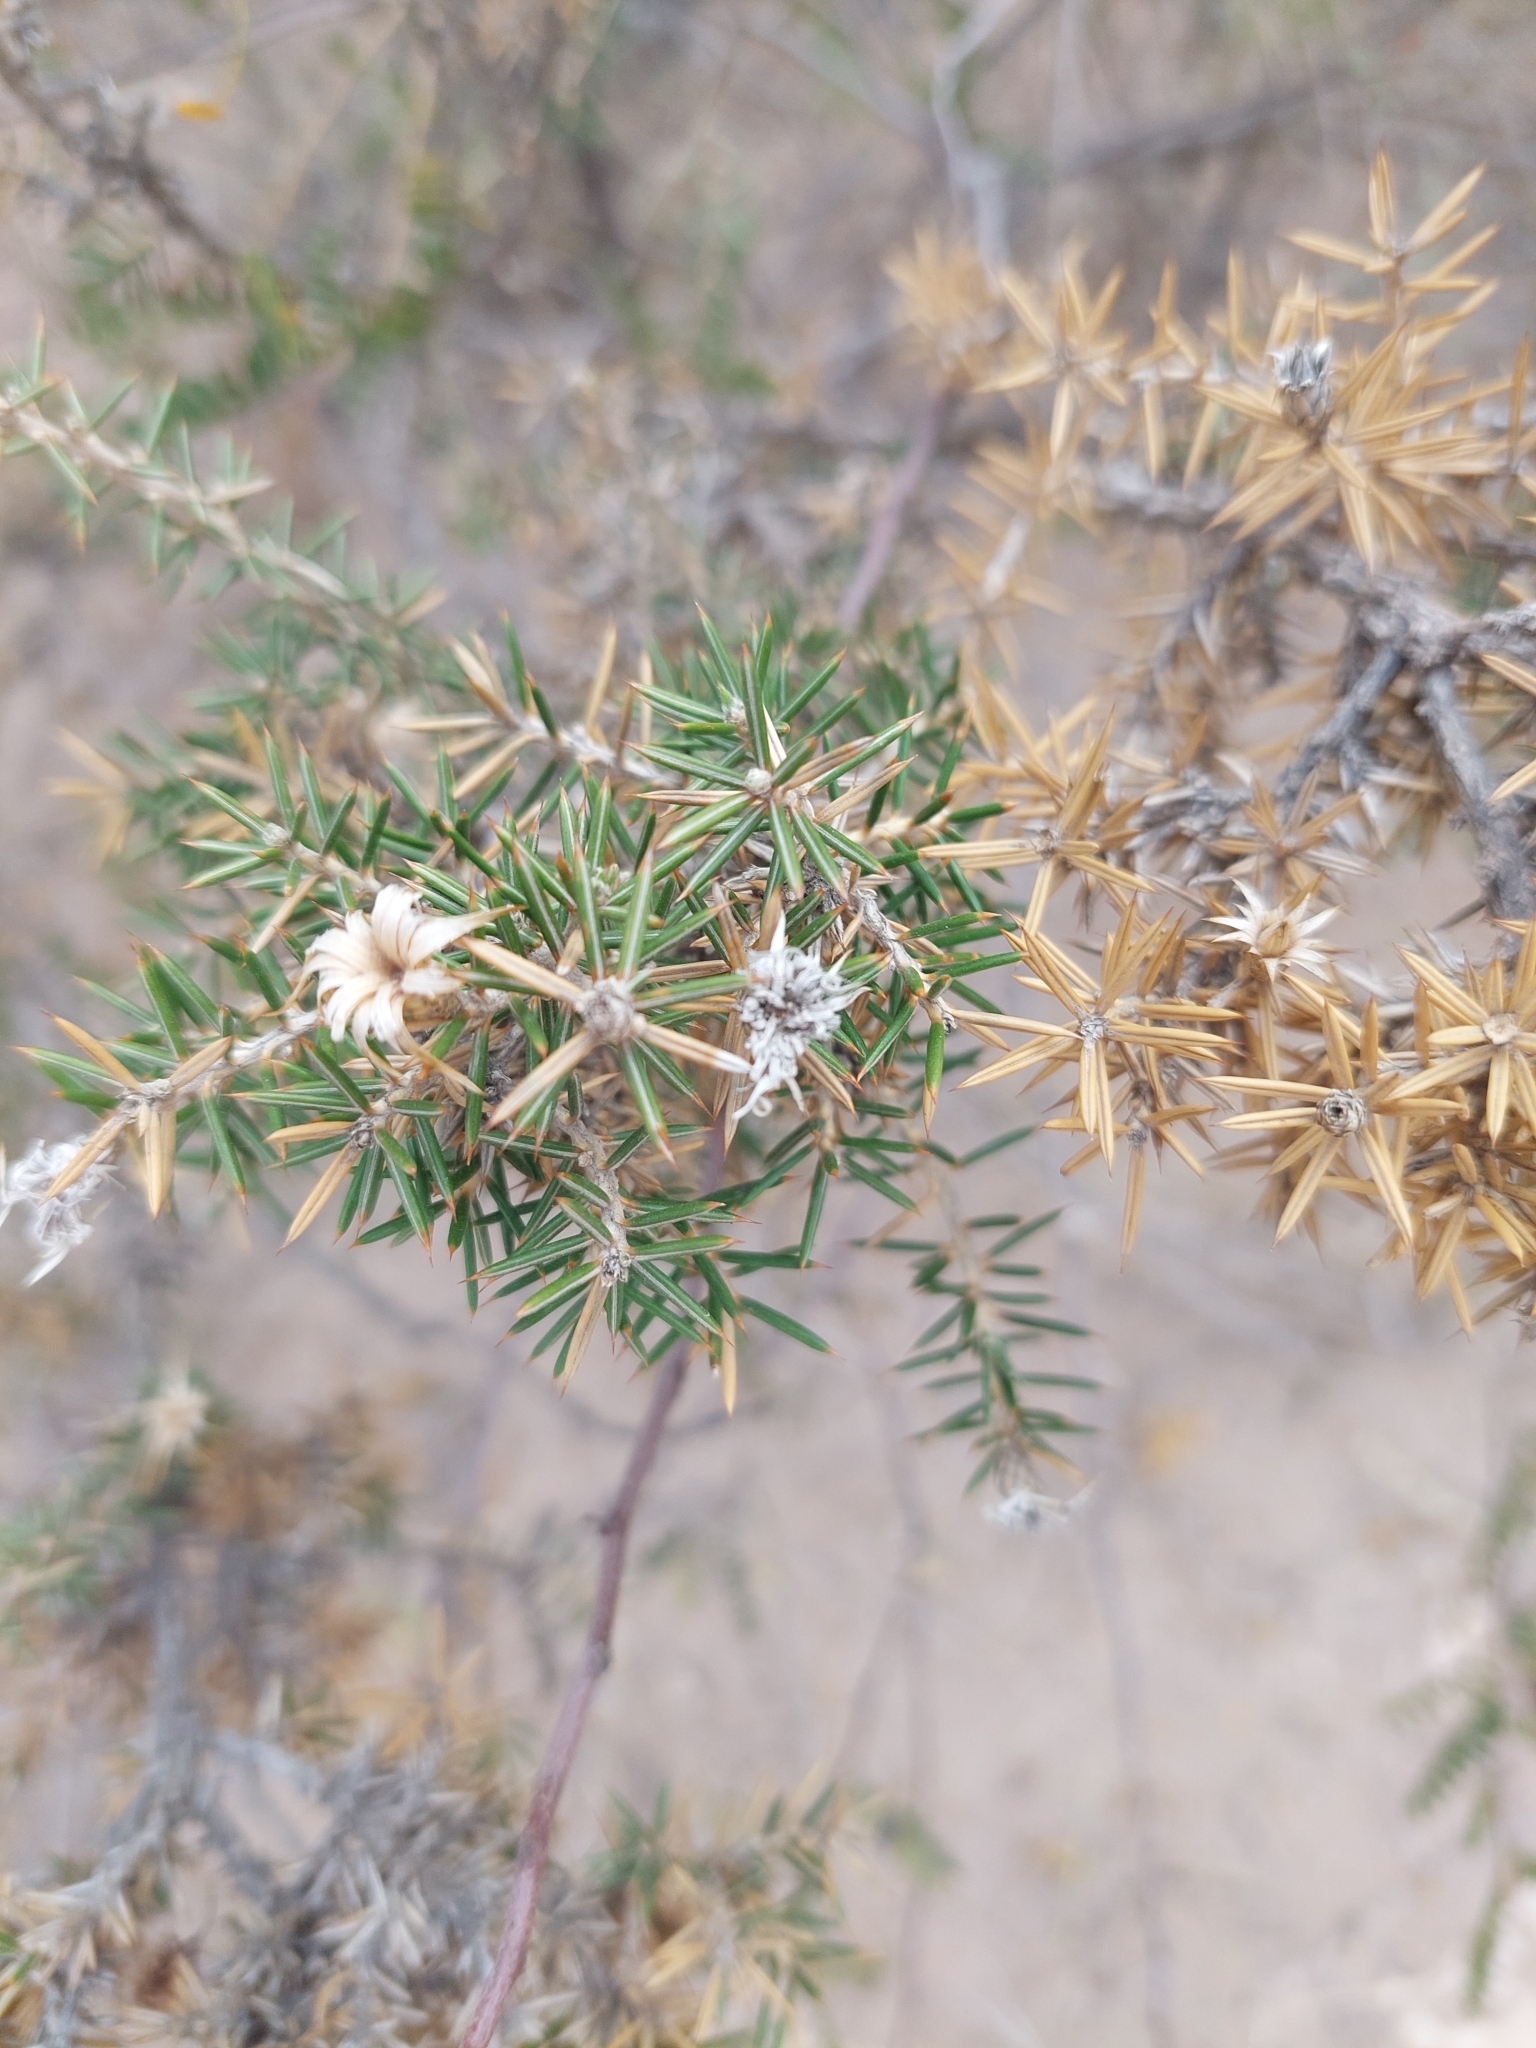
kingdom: Plantae
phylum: Tracheophyta
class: Magnoliopsida
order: Asterales
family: Asteraceae
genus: Chuquiraga
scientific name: Chuquiraga erinacea
